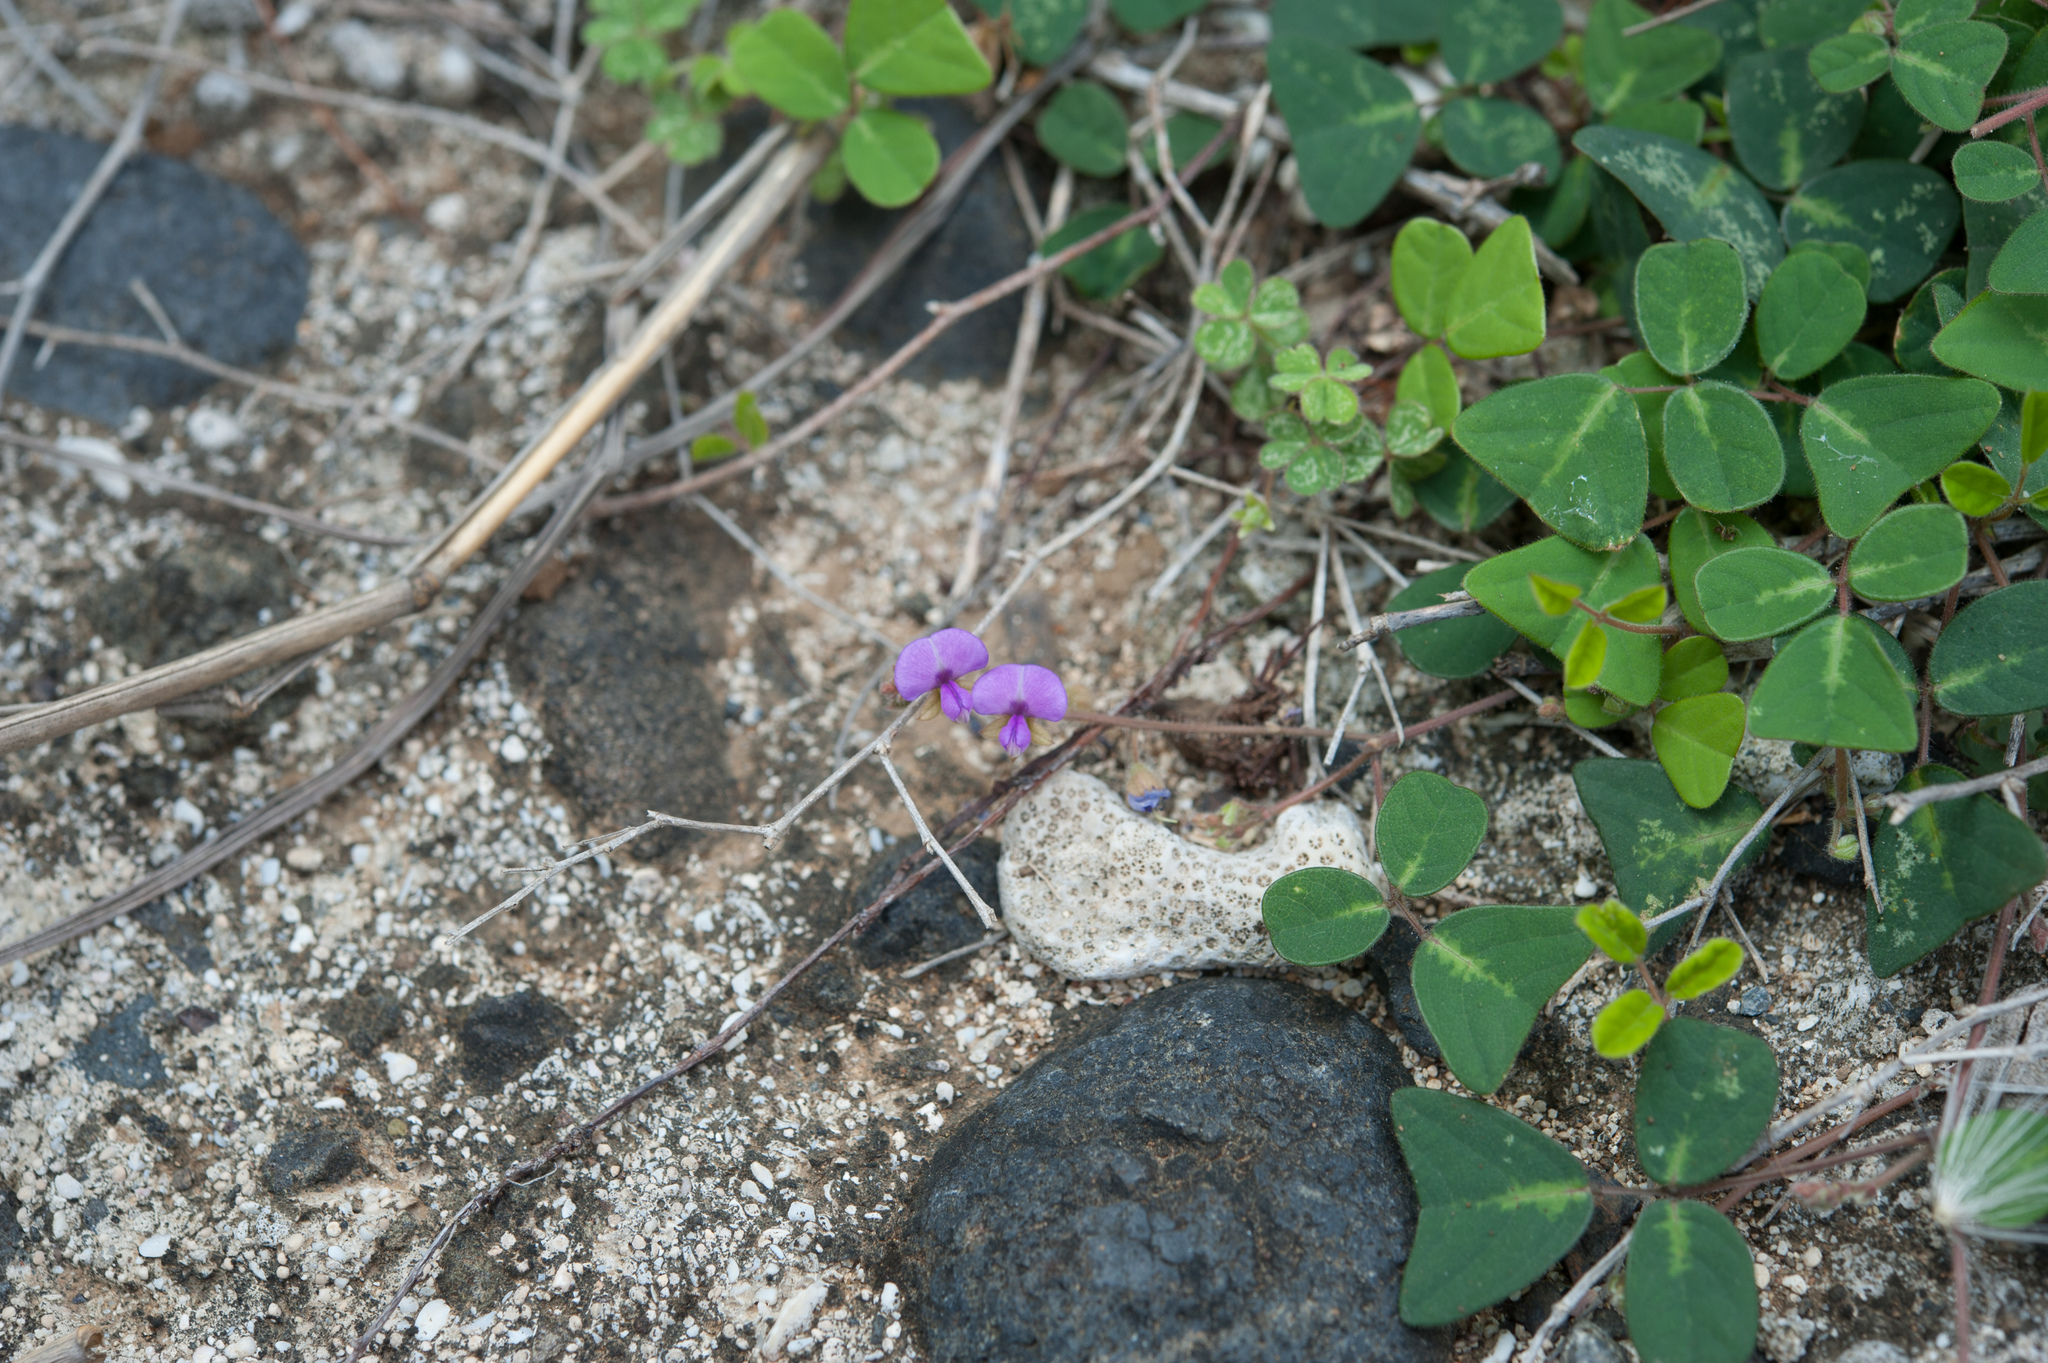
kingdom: Plantae
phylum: Tracheophyta
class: Magnoliopsida
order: Fabales
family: Fabaceae
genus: Christia
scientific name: Christia obcordata
